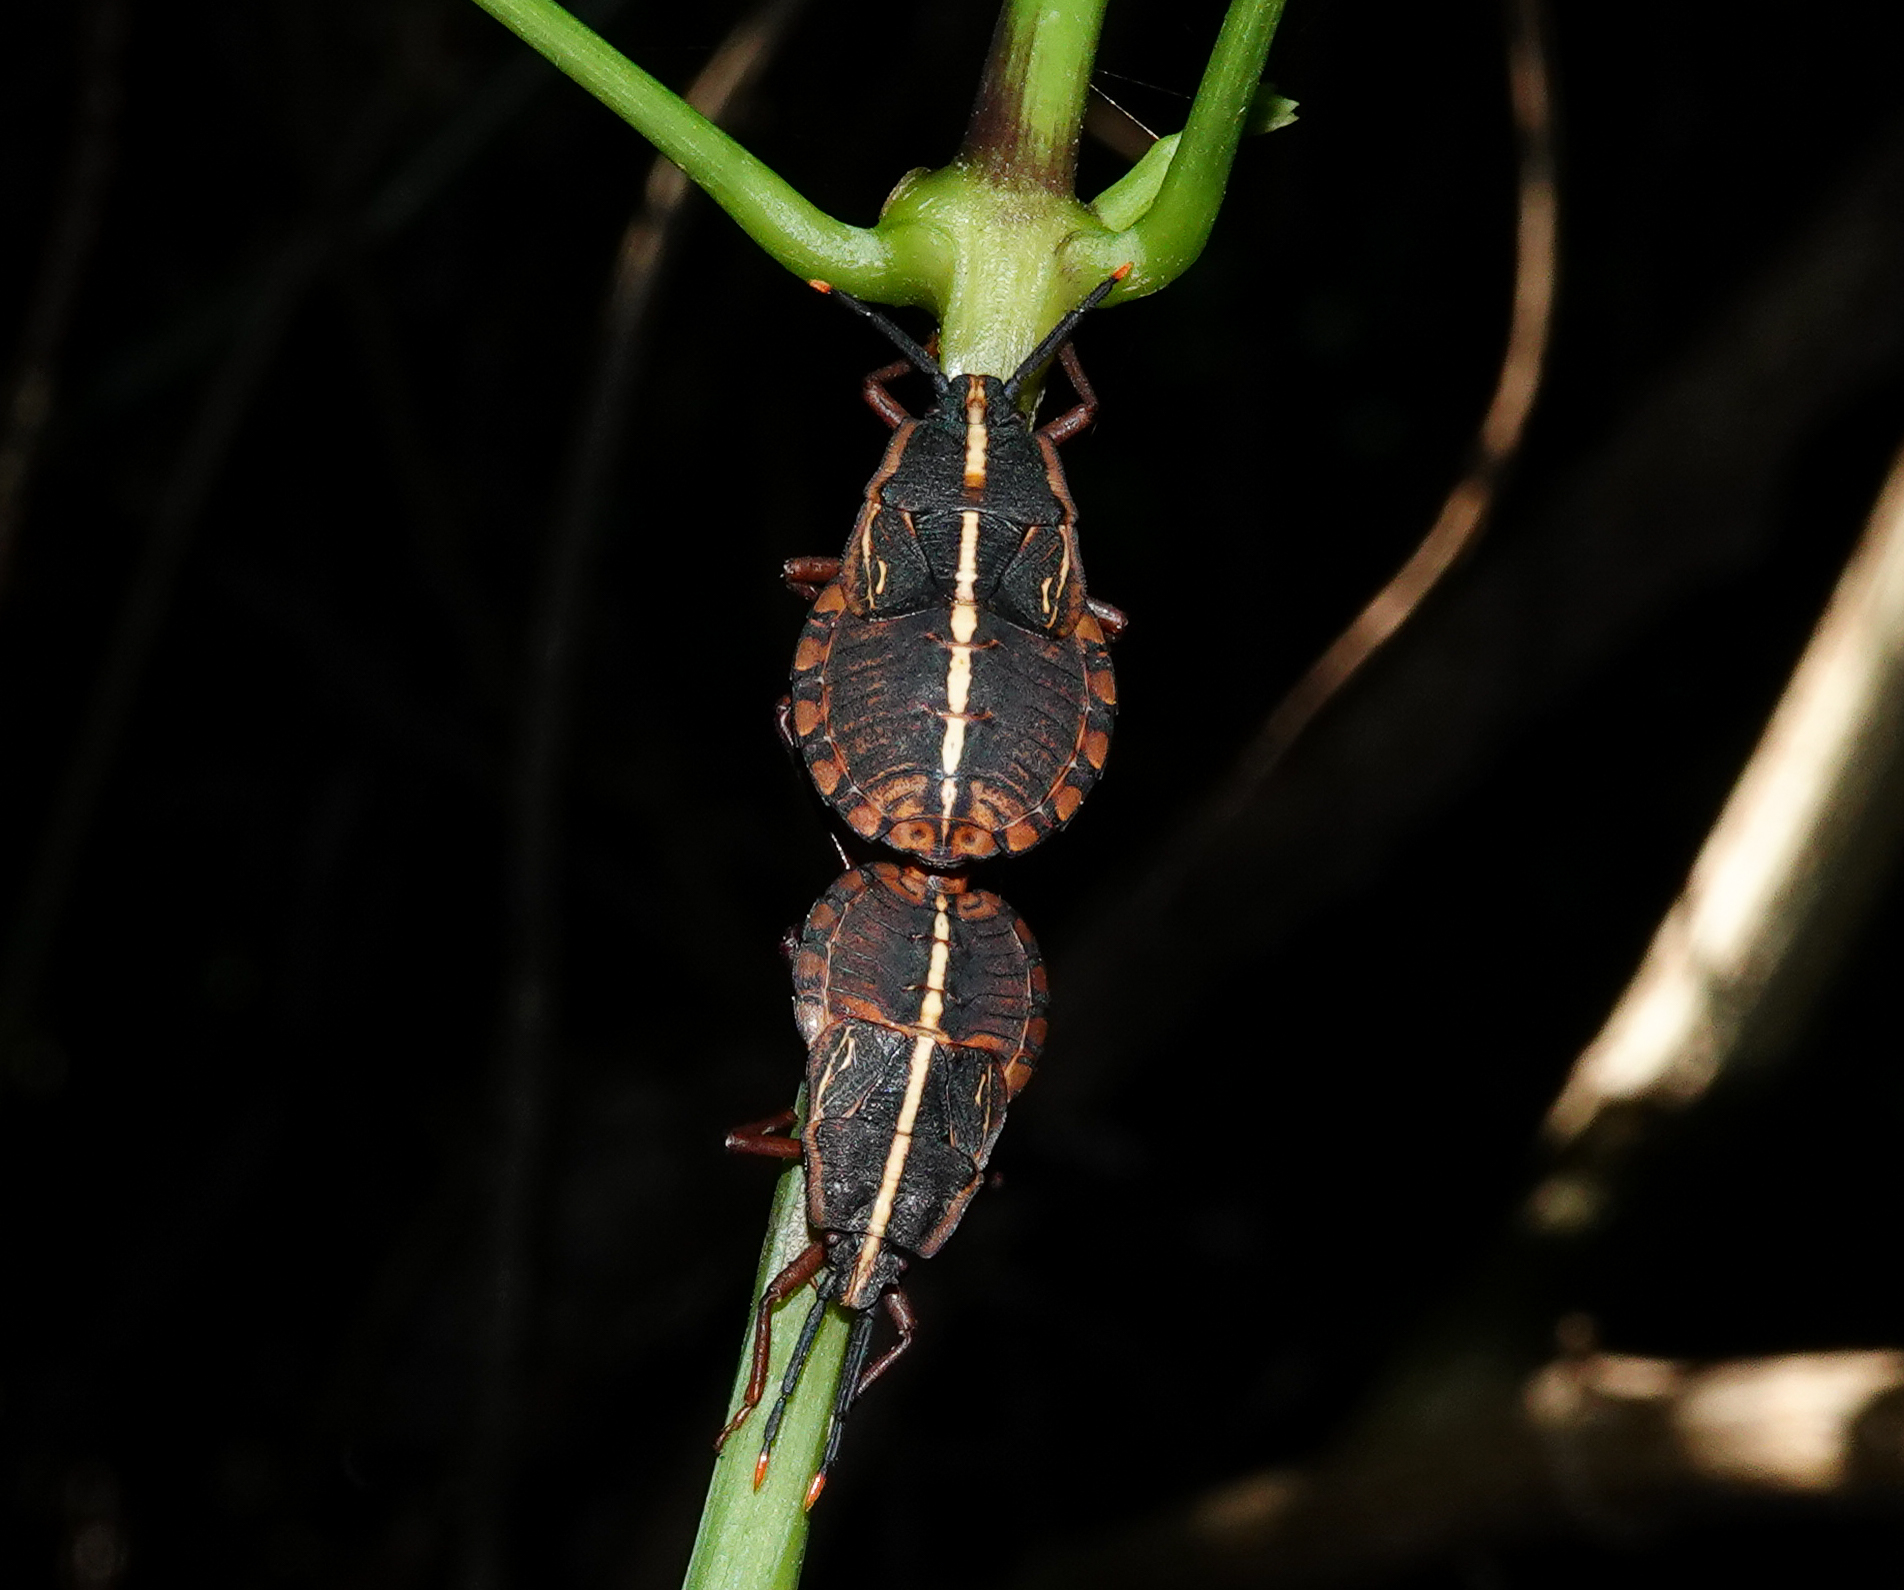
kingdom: Animalia
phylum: Arthropoda
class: Insecta
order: Hemiptera
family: Dinidoridae
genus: Sagriva
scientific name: Sagriva vittata
